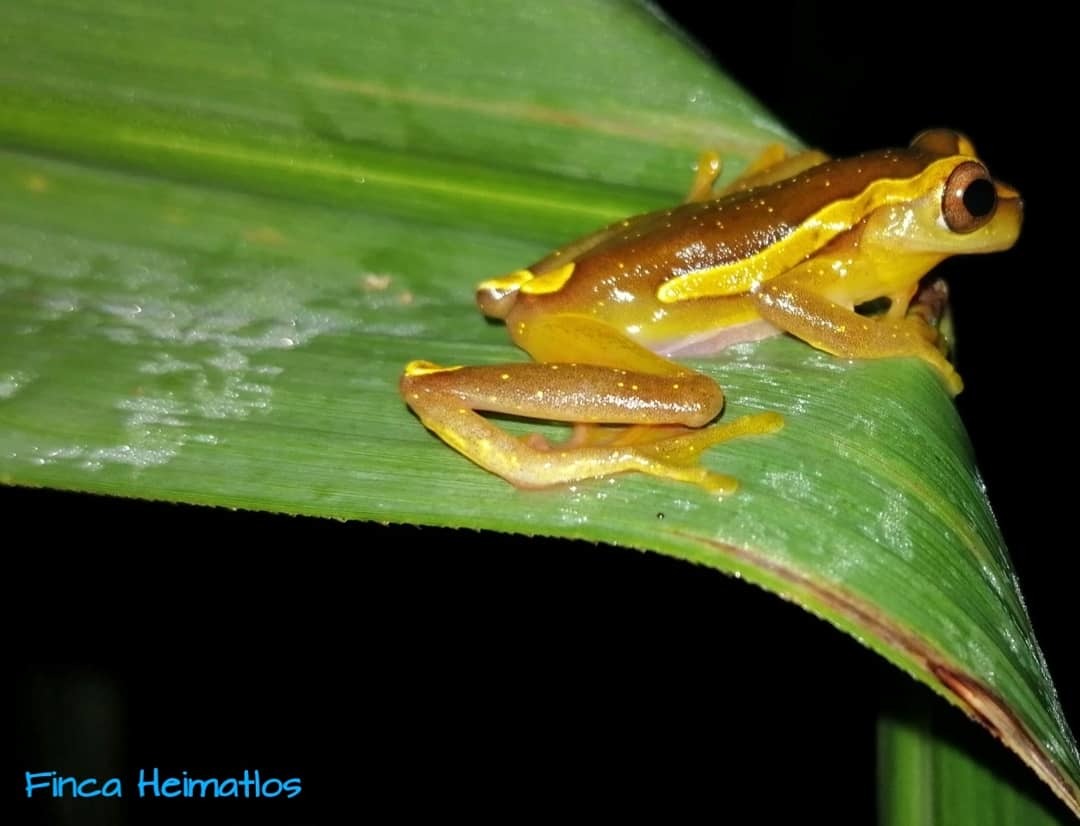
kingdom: Animalia
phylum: Chordata
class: Amphibia
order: Anura
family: Hylidae
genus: Dendropsophus
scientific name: Dendropsophus bifurcus
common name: Two-lined treefrog
